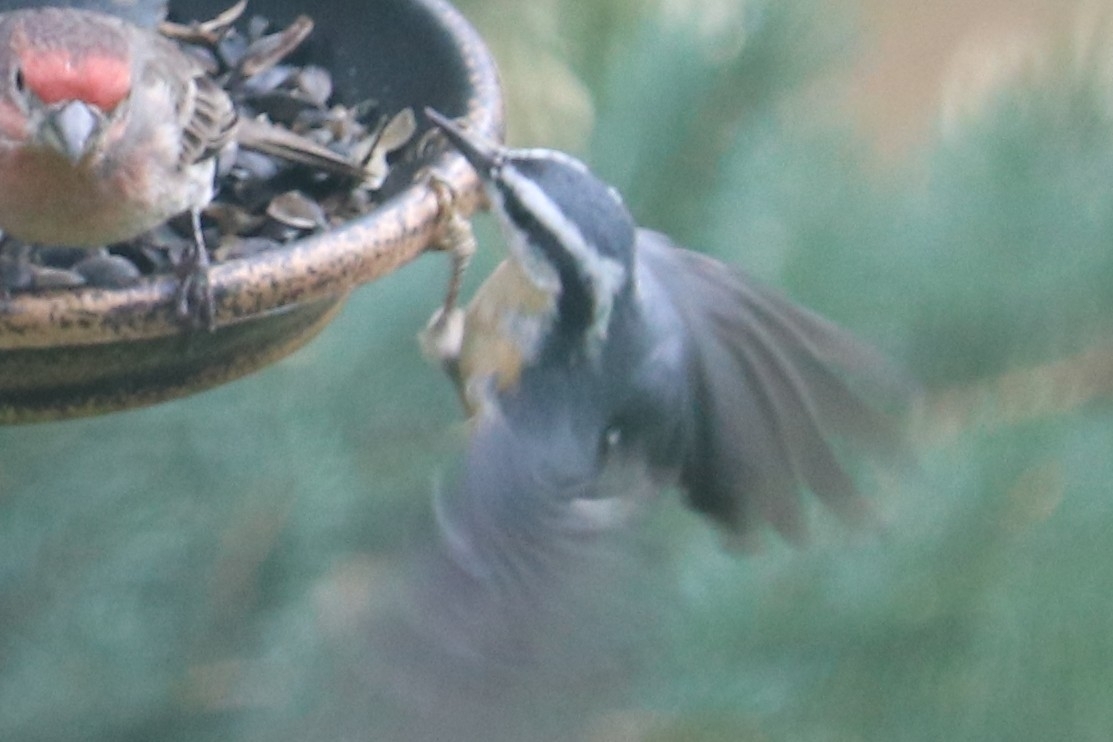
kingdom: Animalia
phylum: Chordata
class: Aves
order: Passeriformes
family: Sittidae
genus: Sitta
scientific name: Sitta canadensis
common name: Red-breasted nuthatch
